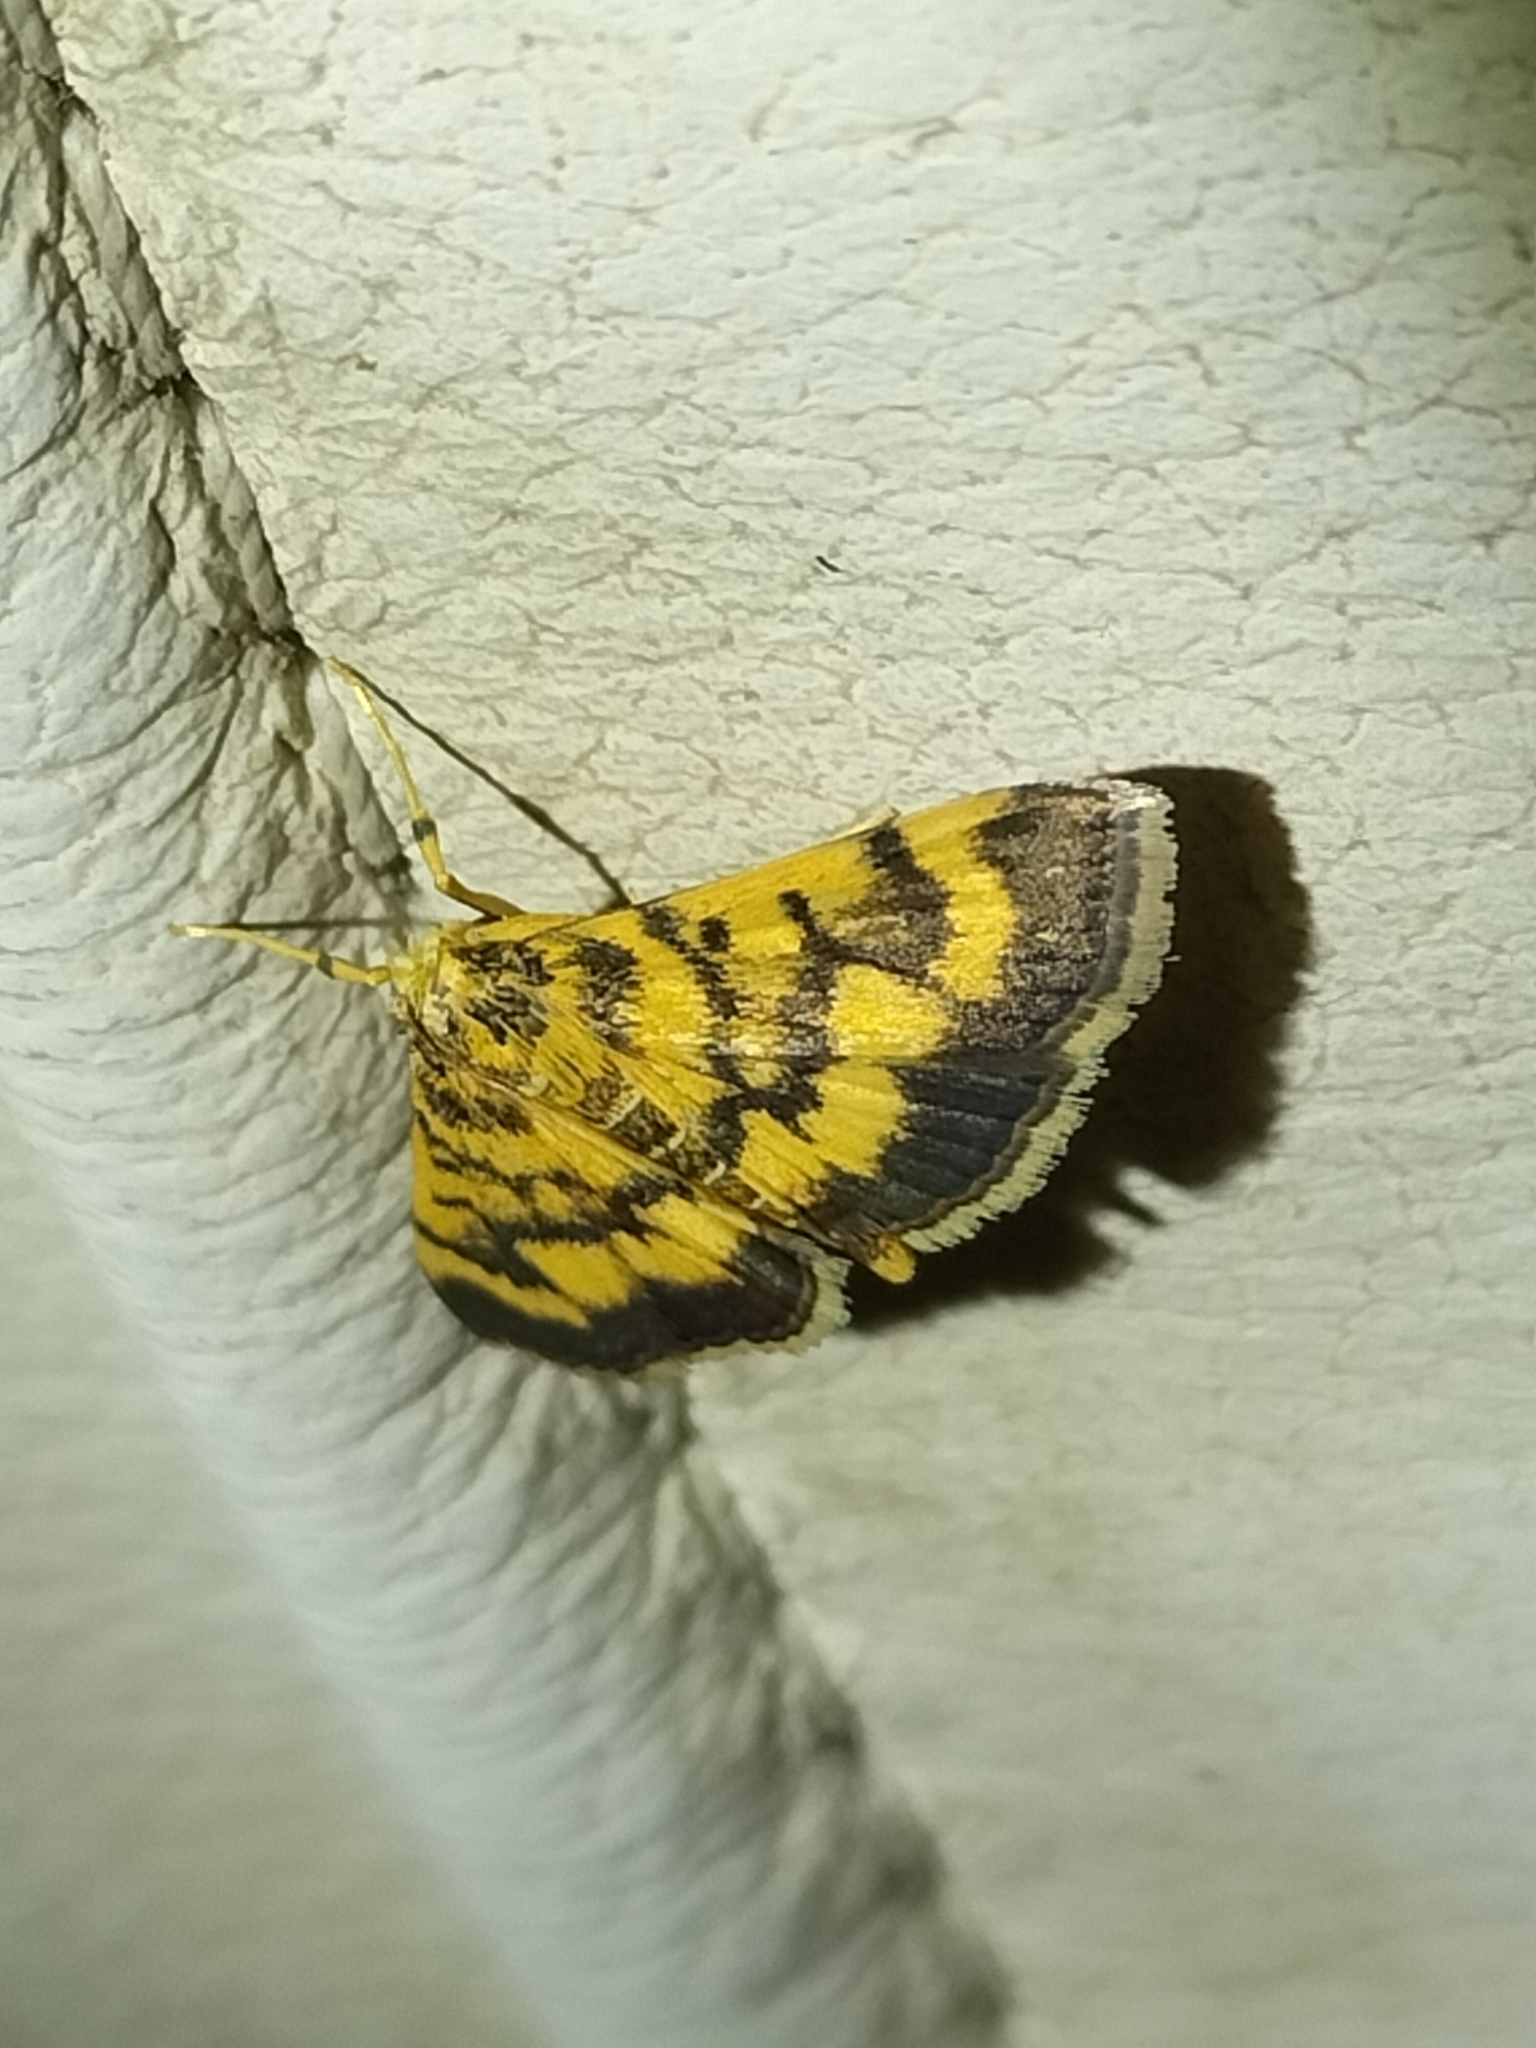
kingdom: Animalia
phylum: Arthropoda
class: Insecta
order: Lepidoptera
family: Crambidae
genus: Omiodes
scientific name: Omiodes diemenalis
